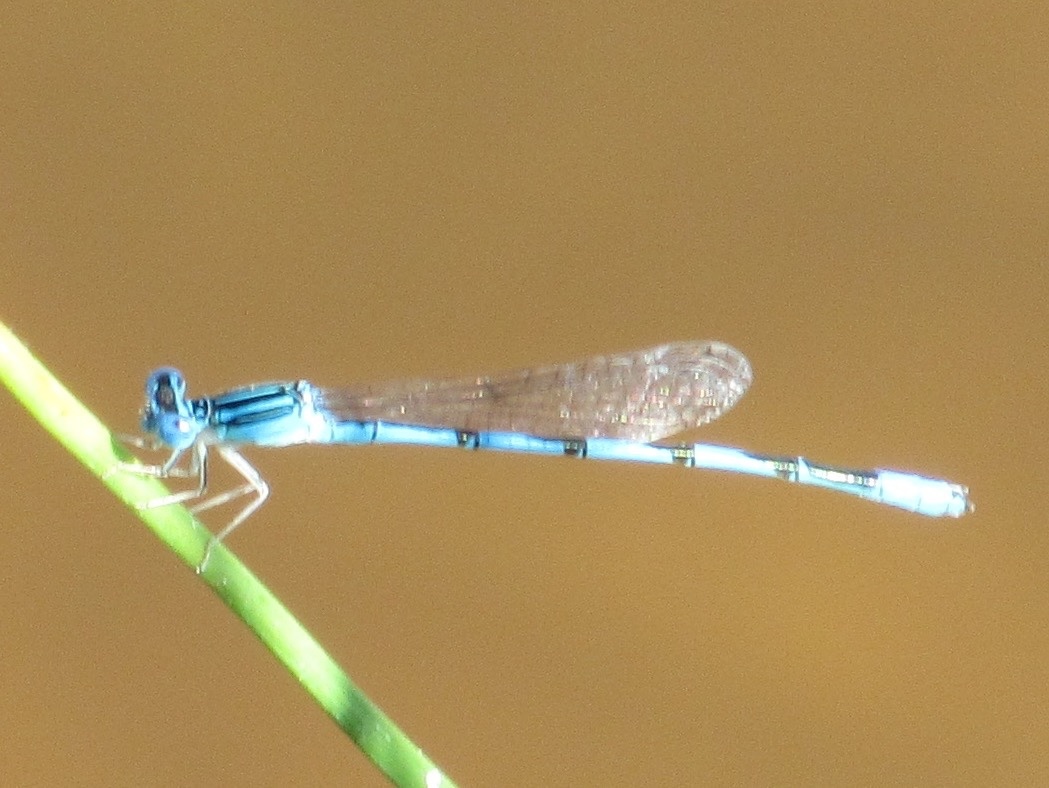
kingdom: Animalia
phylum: Arthropoda
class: Insecta
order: Odonata
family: Coenagrionidae
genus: Enallagma
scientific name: Enallagma basidens
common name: Double-striped bluet
